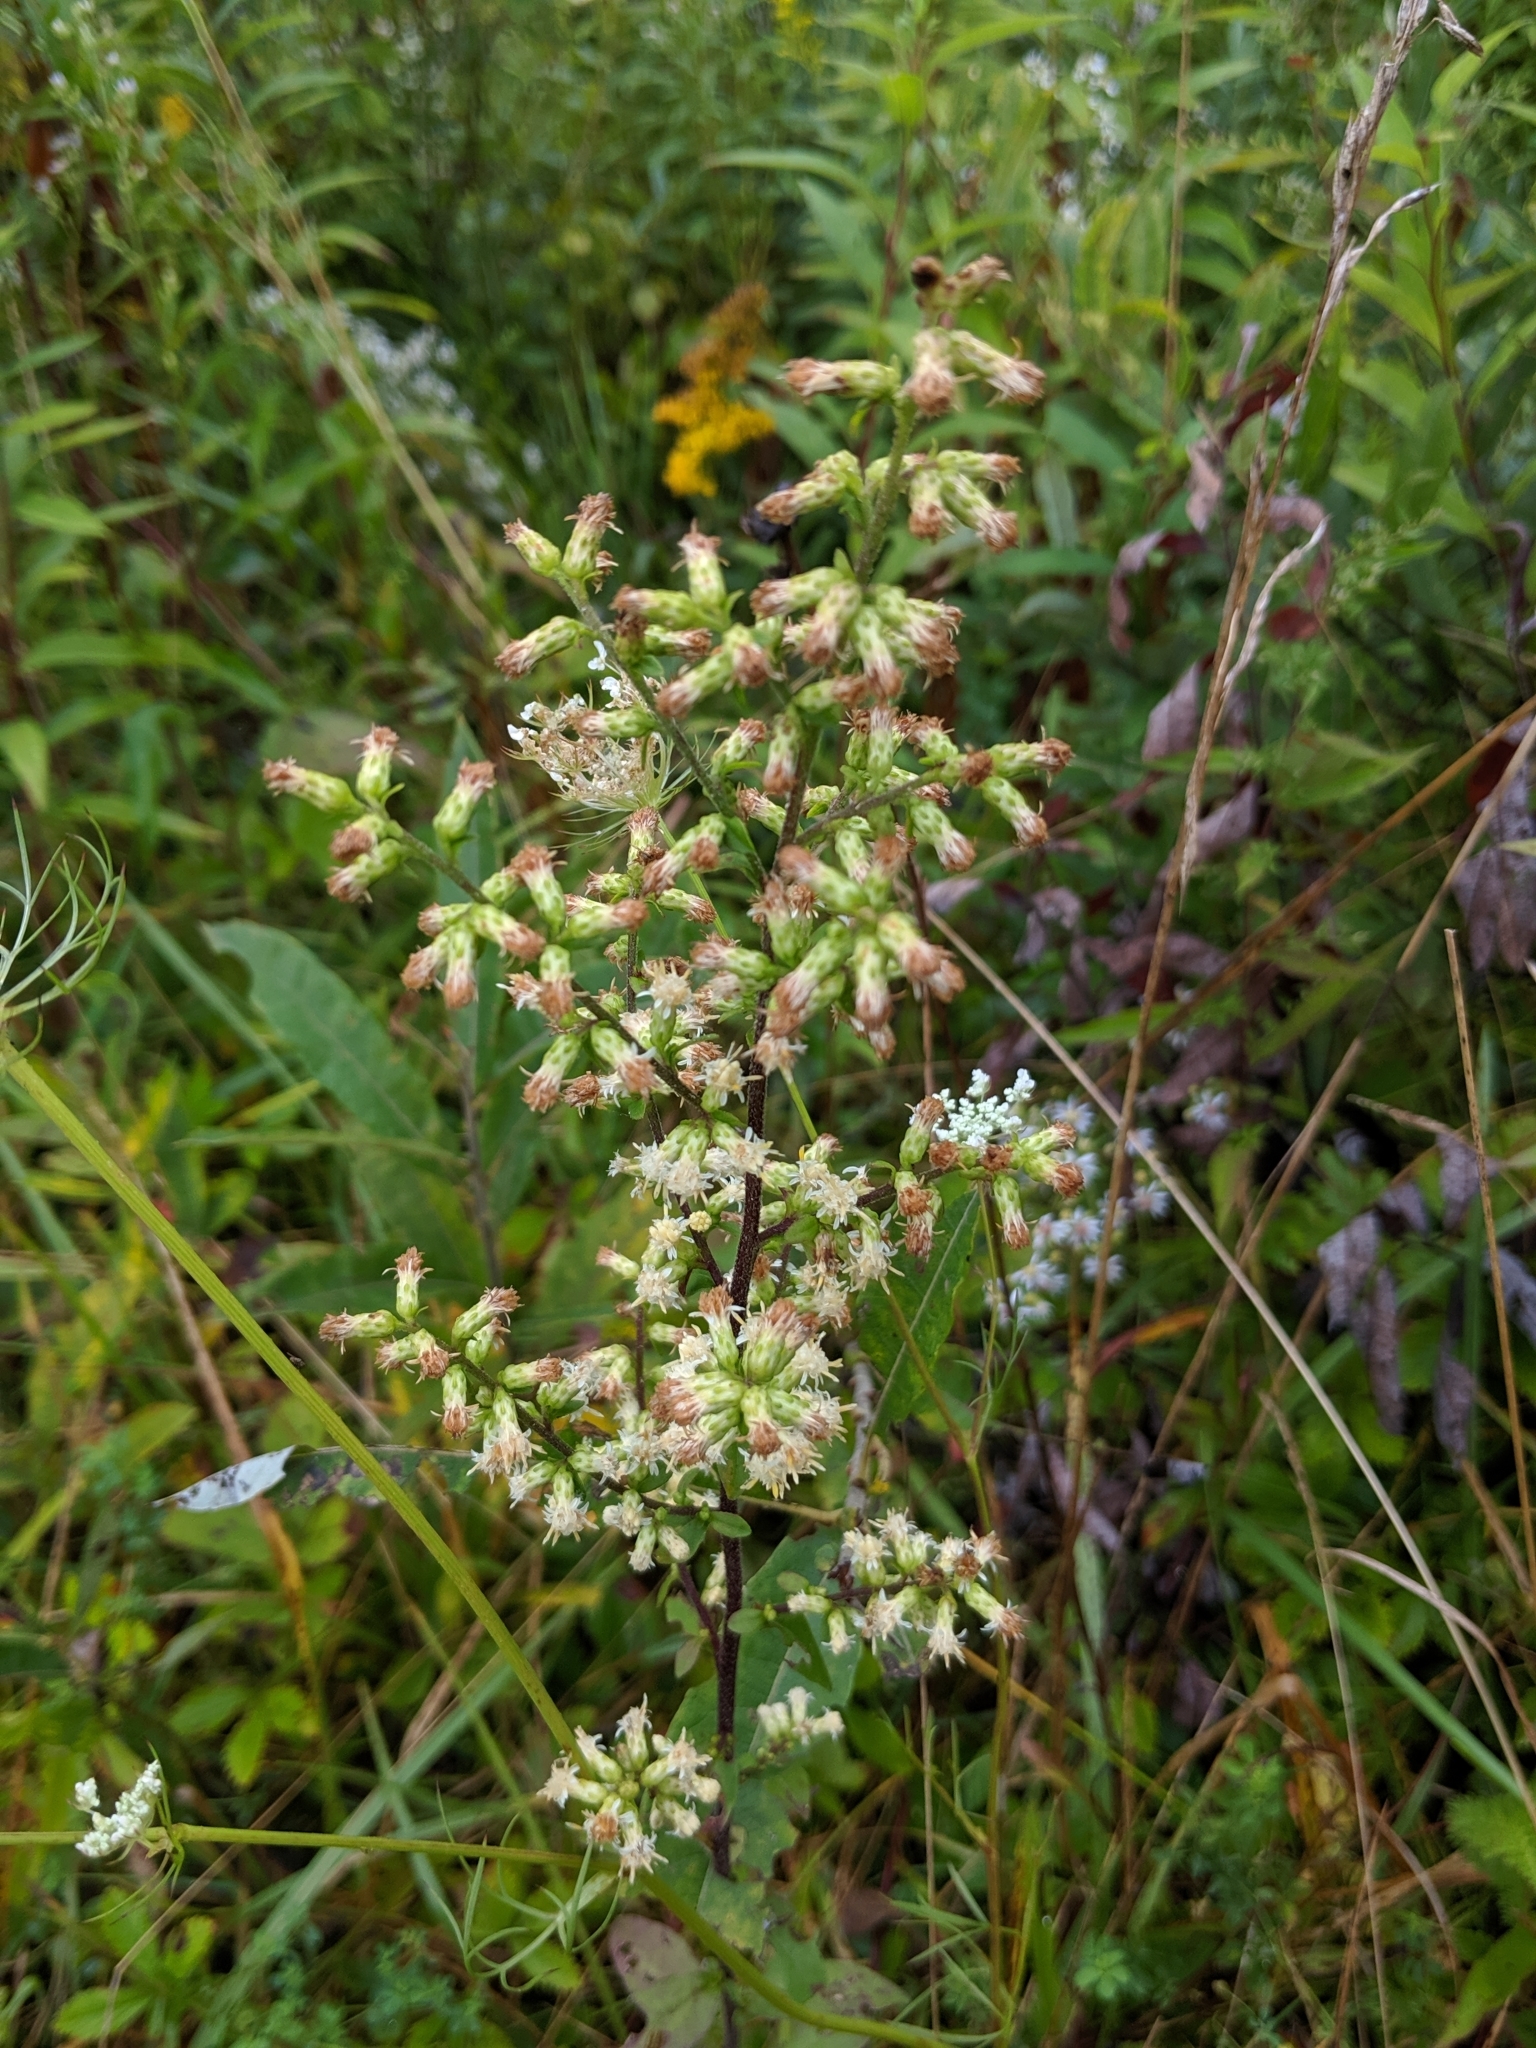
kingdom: Plantae
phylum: Tracheophyta
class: Magnoliopsida
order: Asterales
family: Asteraceae
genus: Solidago
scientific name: Solidago bicolor
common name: Silverrod
